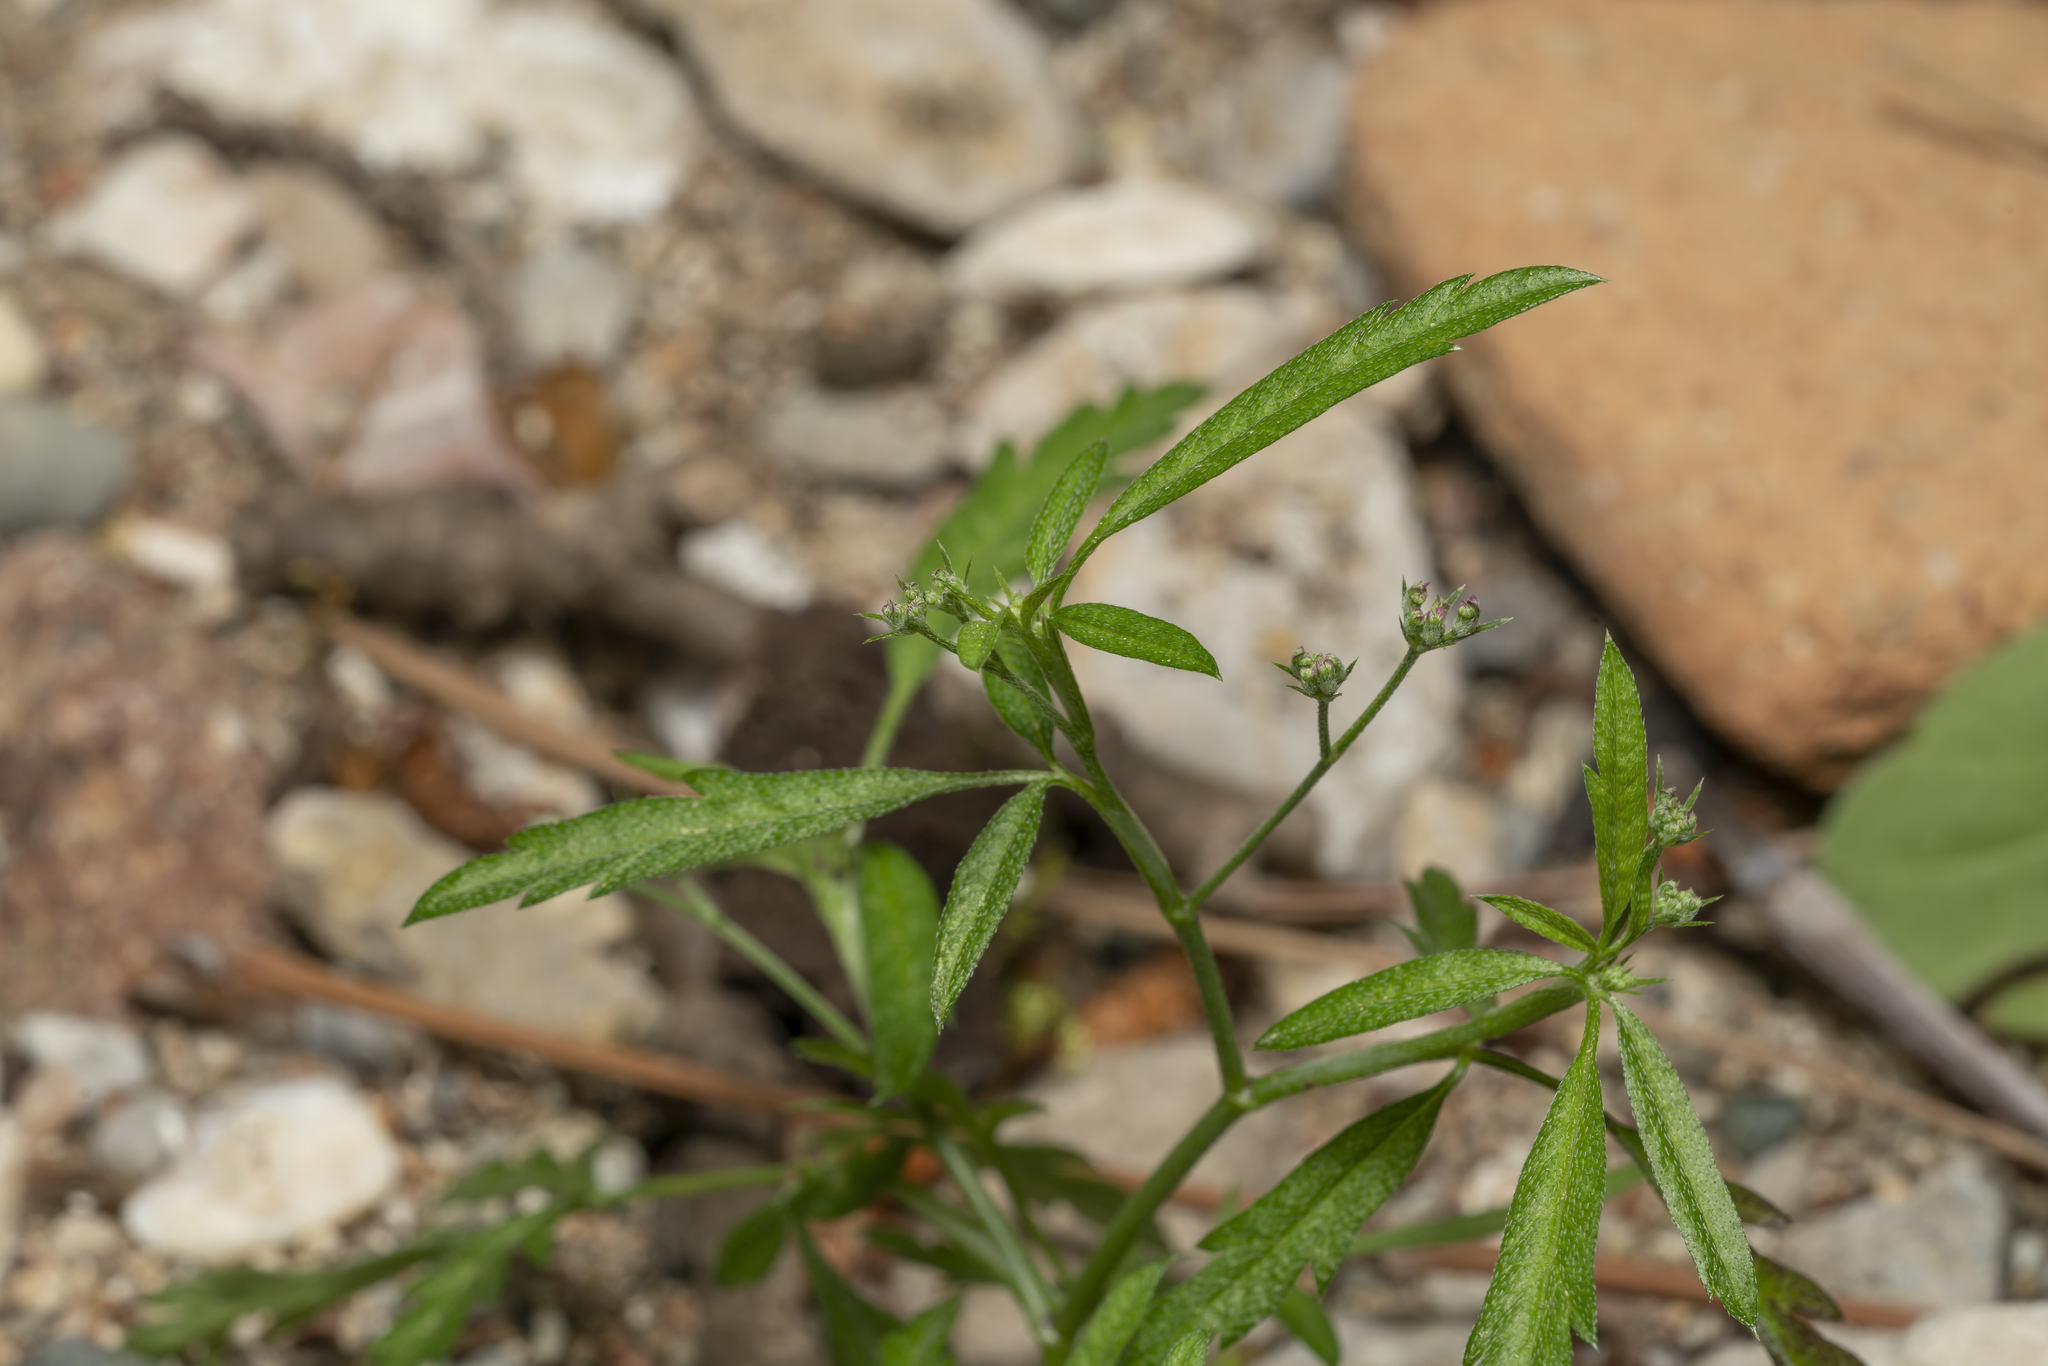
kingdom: Plantae
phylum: Tracheophyta
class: Magnoliopsida
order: Apiales
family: Apiaceae
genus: Torilis
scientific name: Torilis
